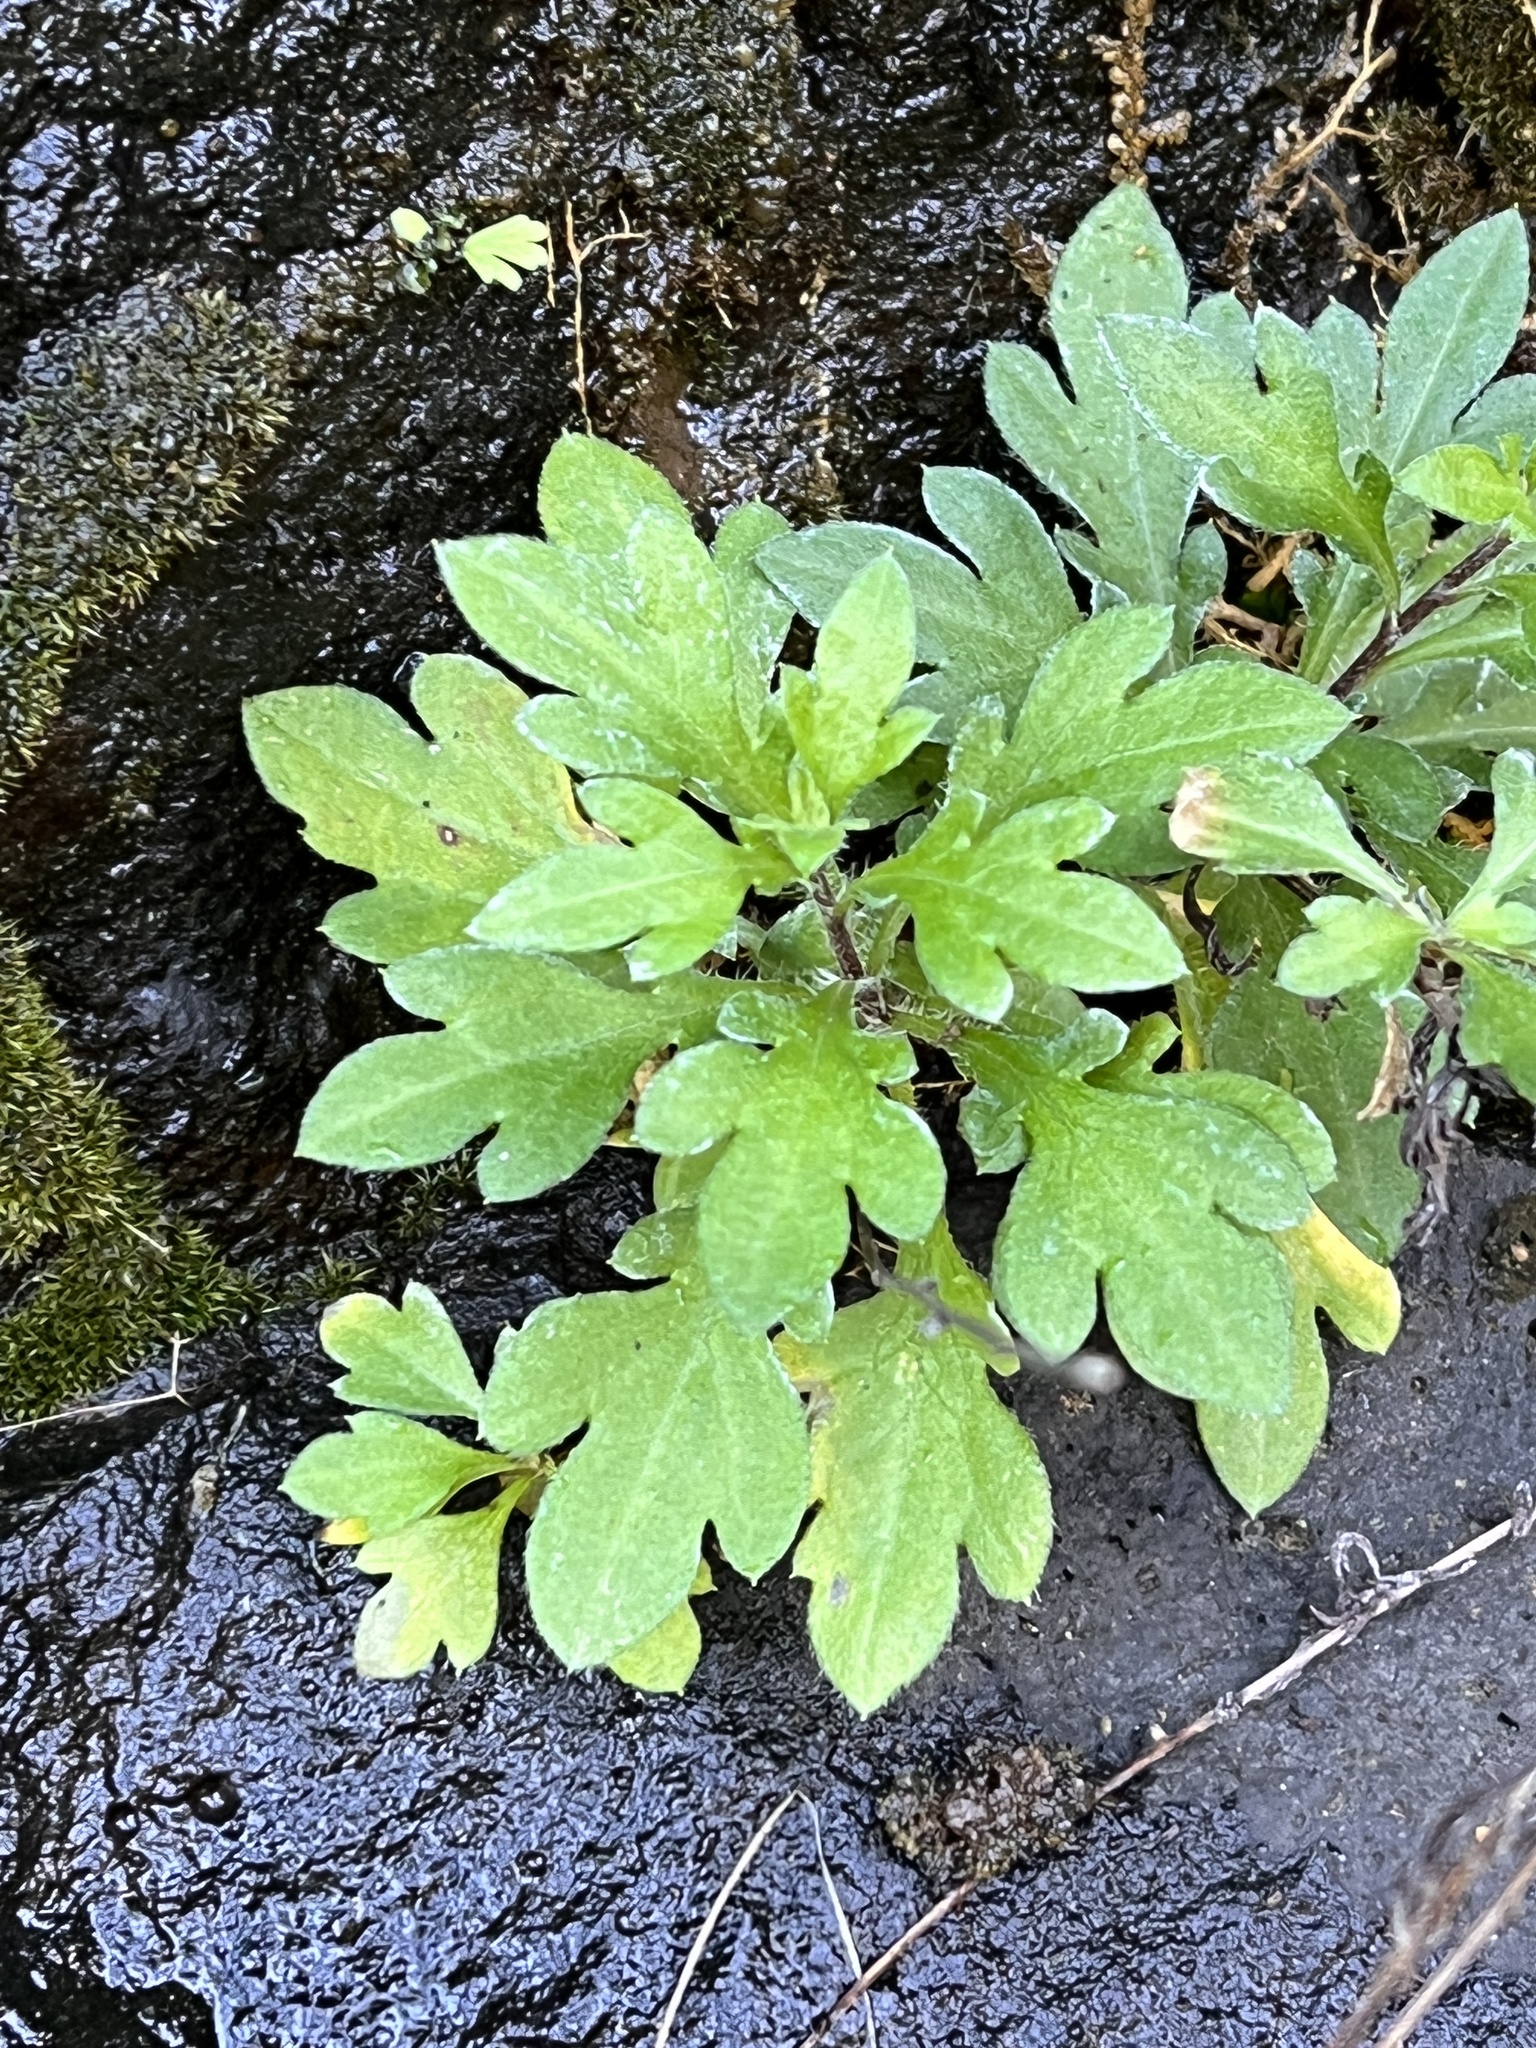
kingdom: Plantae
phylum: Tracheophyta
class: Magnoliopsida
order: Asterales
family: Asteraceae
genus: Erigeron
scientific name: Erigeron karvinskianus
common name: Mexican fleabane
